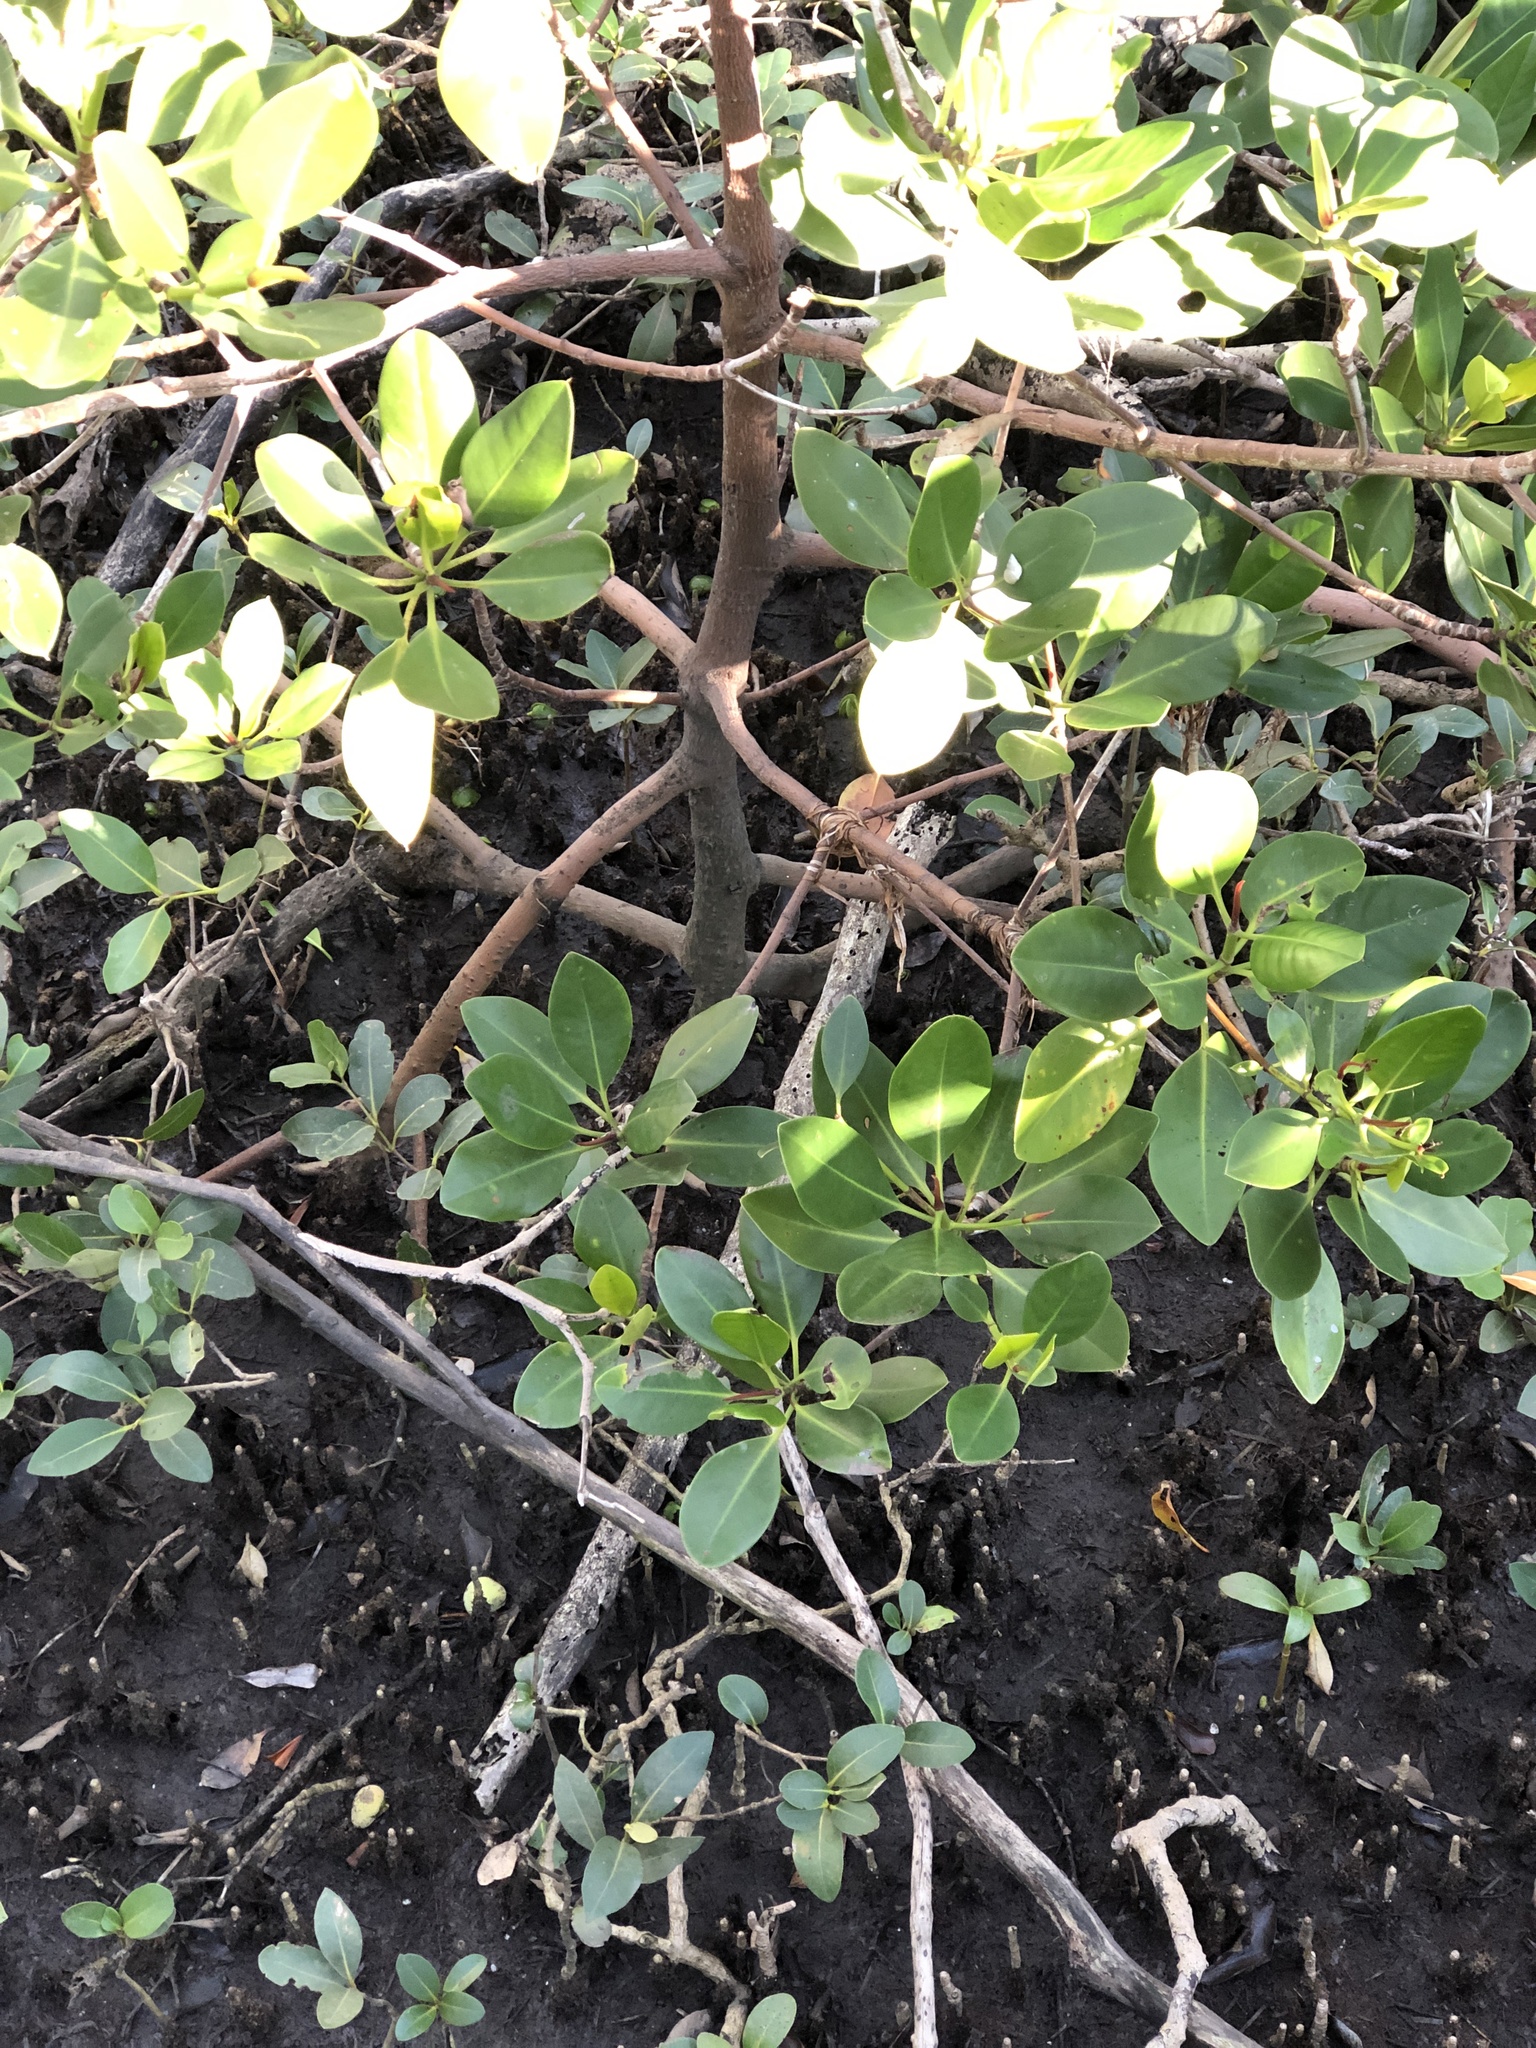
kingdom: Plantae
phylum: Tracheophyta
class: Magnoliopsida
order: Malpighiales
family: Rhizophoraceae
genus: Rhizophora
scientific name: Rhizophora stylosa
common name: Red mangrove
